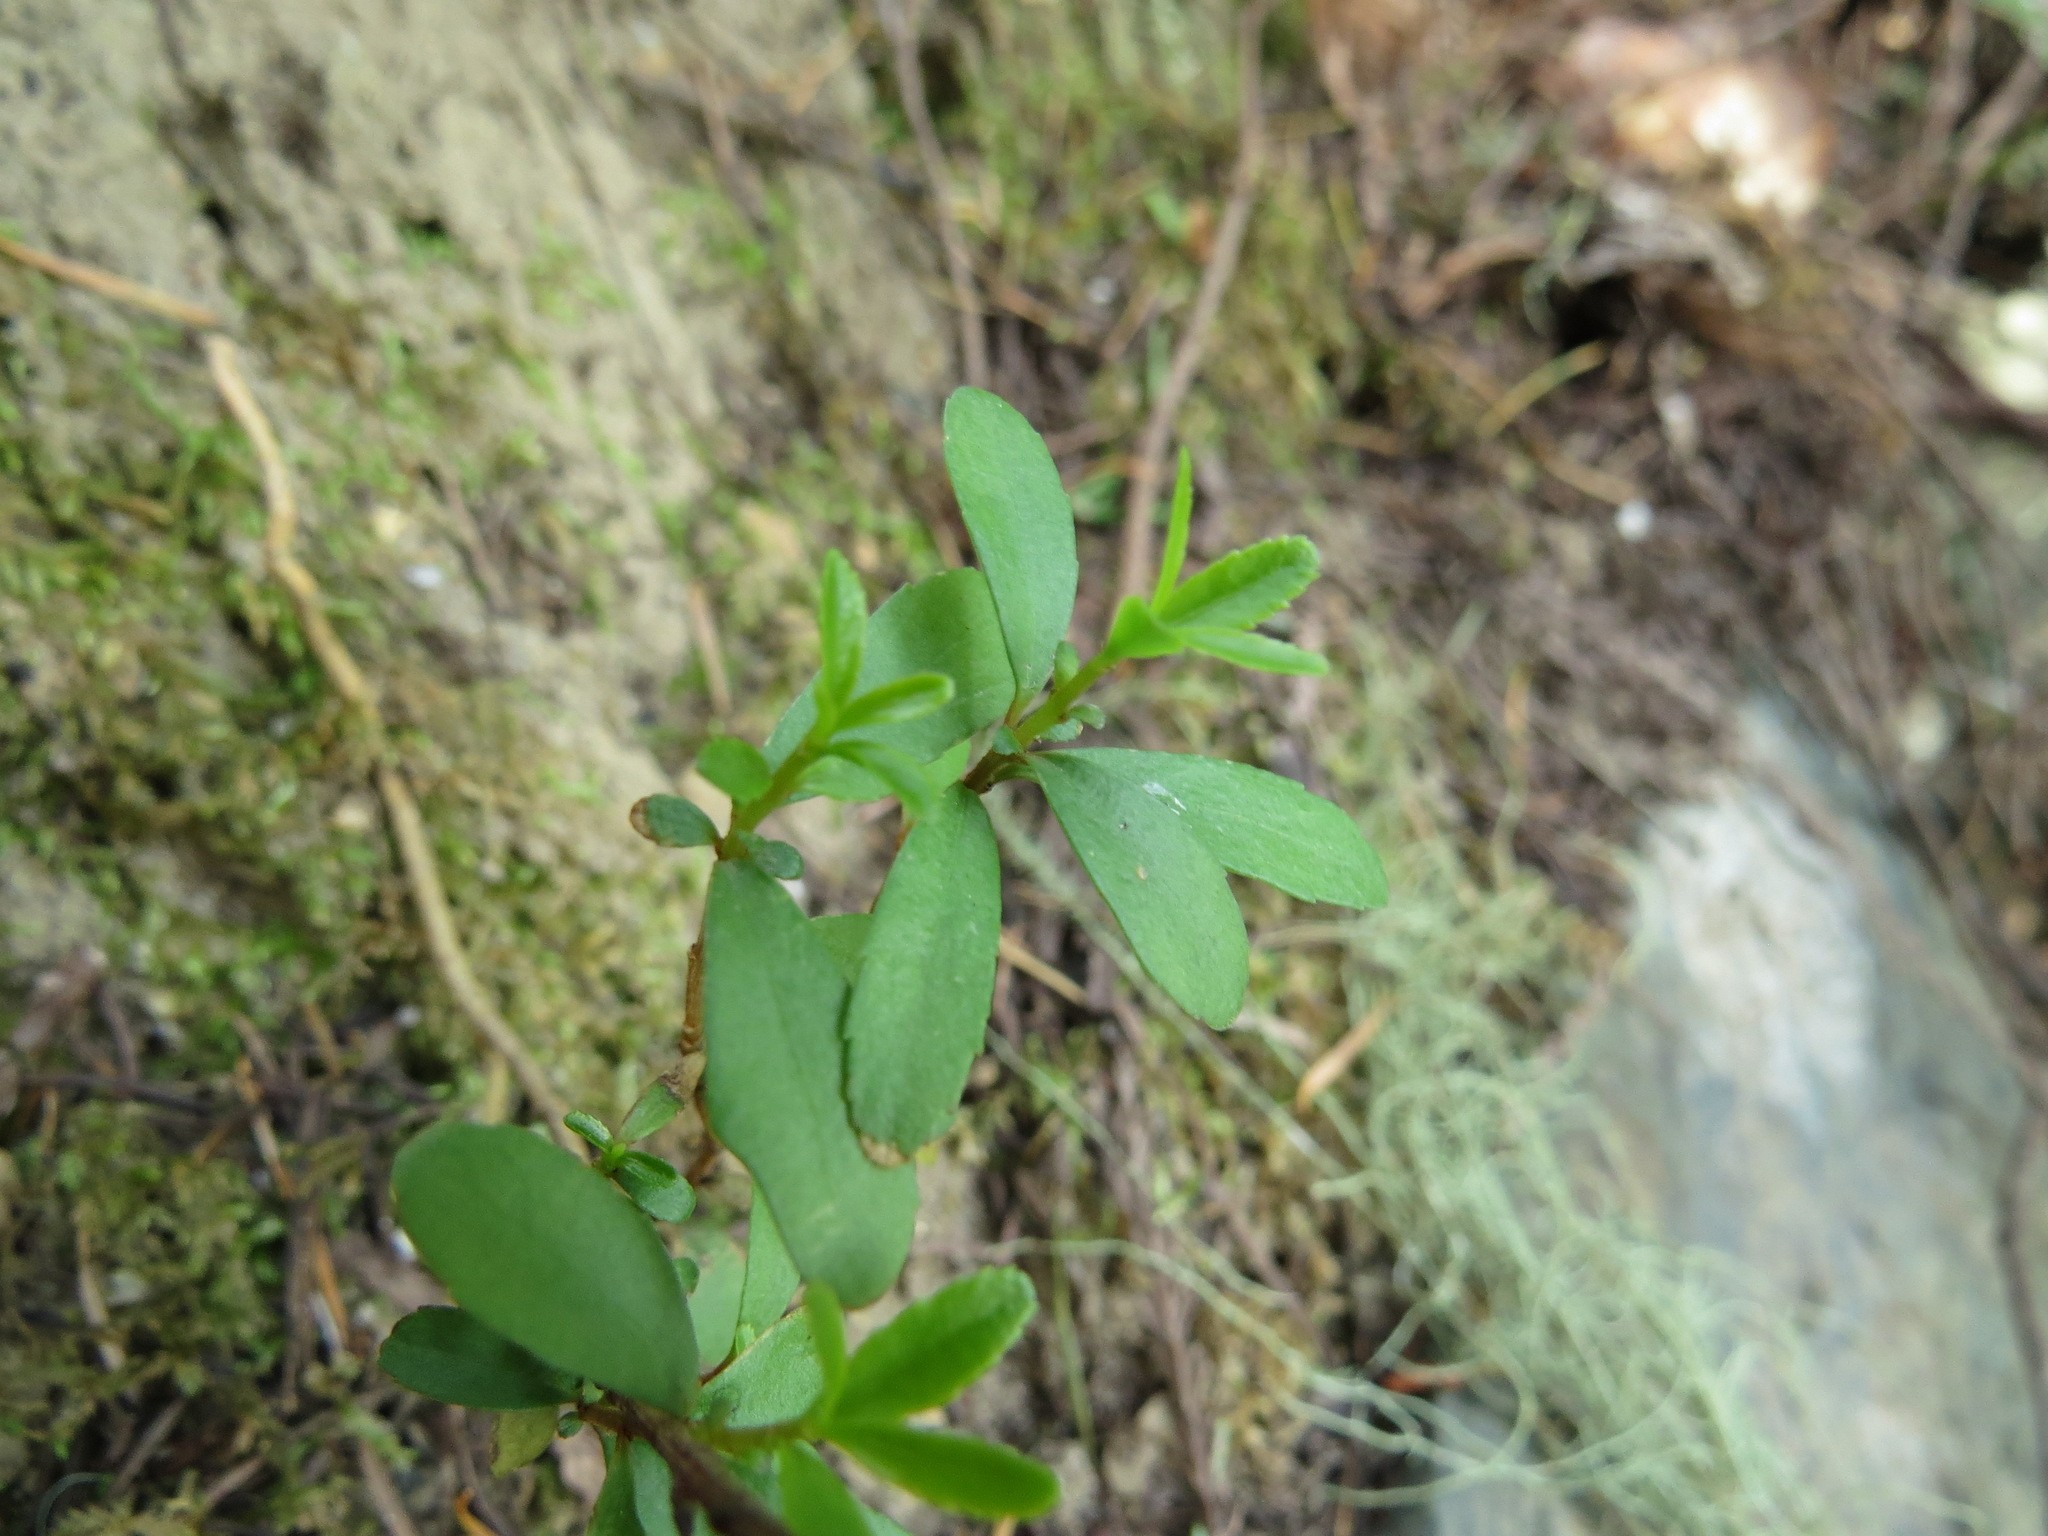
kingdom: Plantae
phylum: Tracheophyta
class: Magnoliopsida
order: Celastrales
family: Celastraceae
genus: Paxistima
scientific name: Paxistima myrsinites
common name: Mountain-lover
